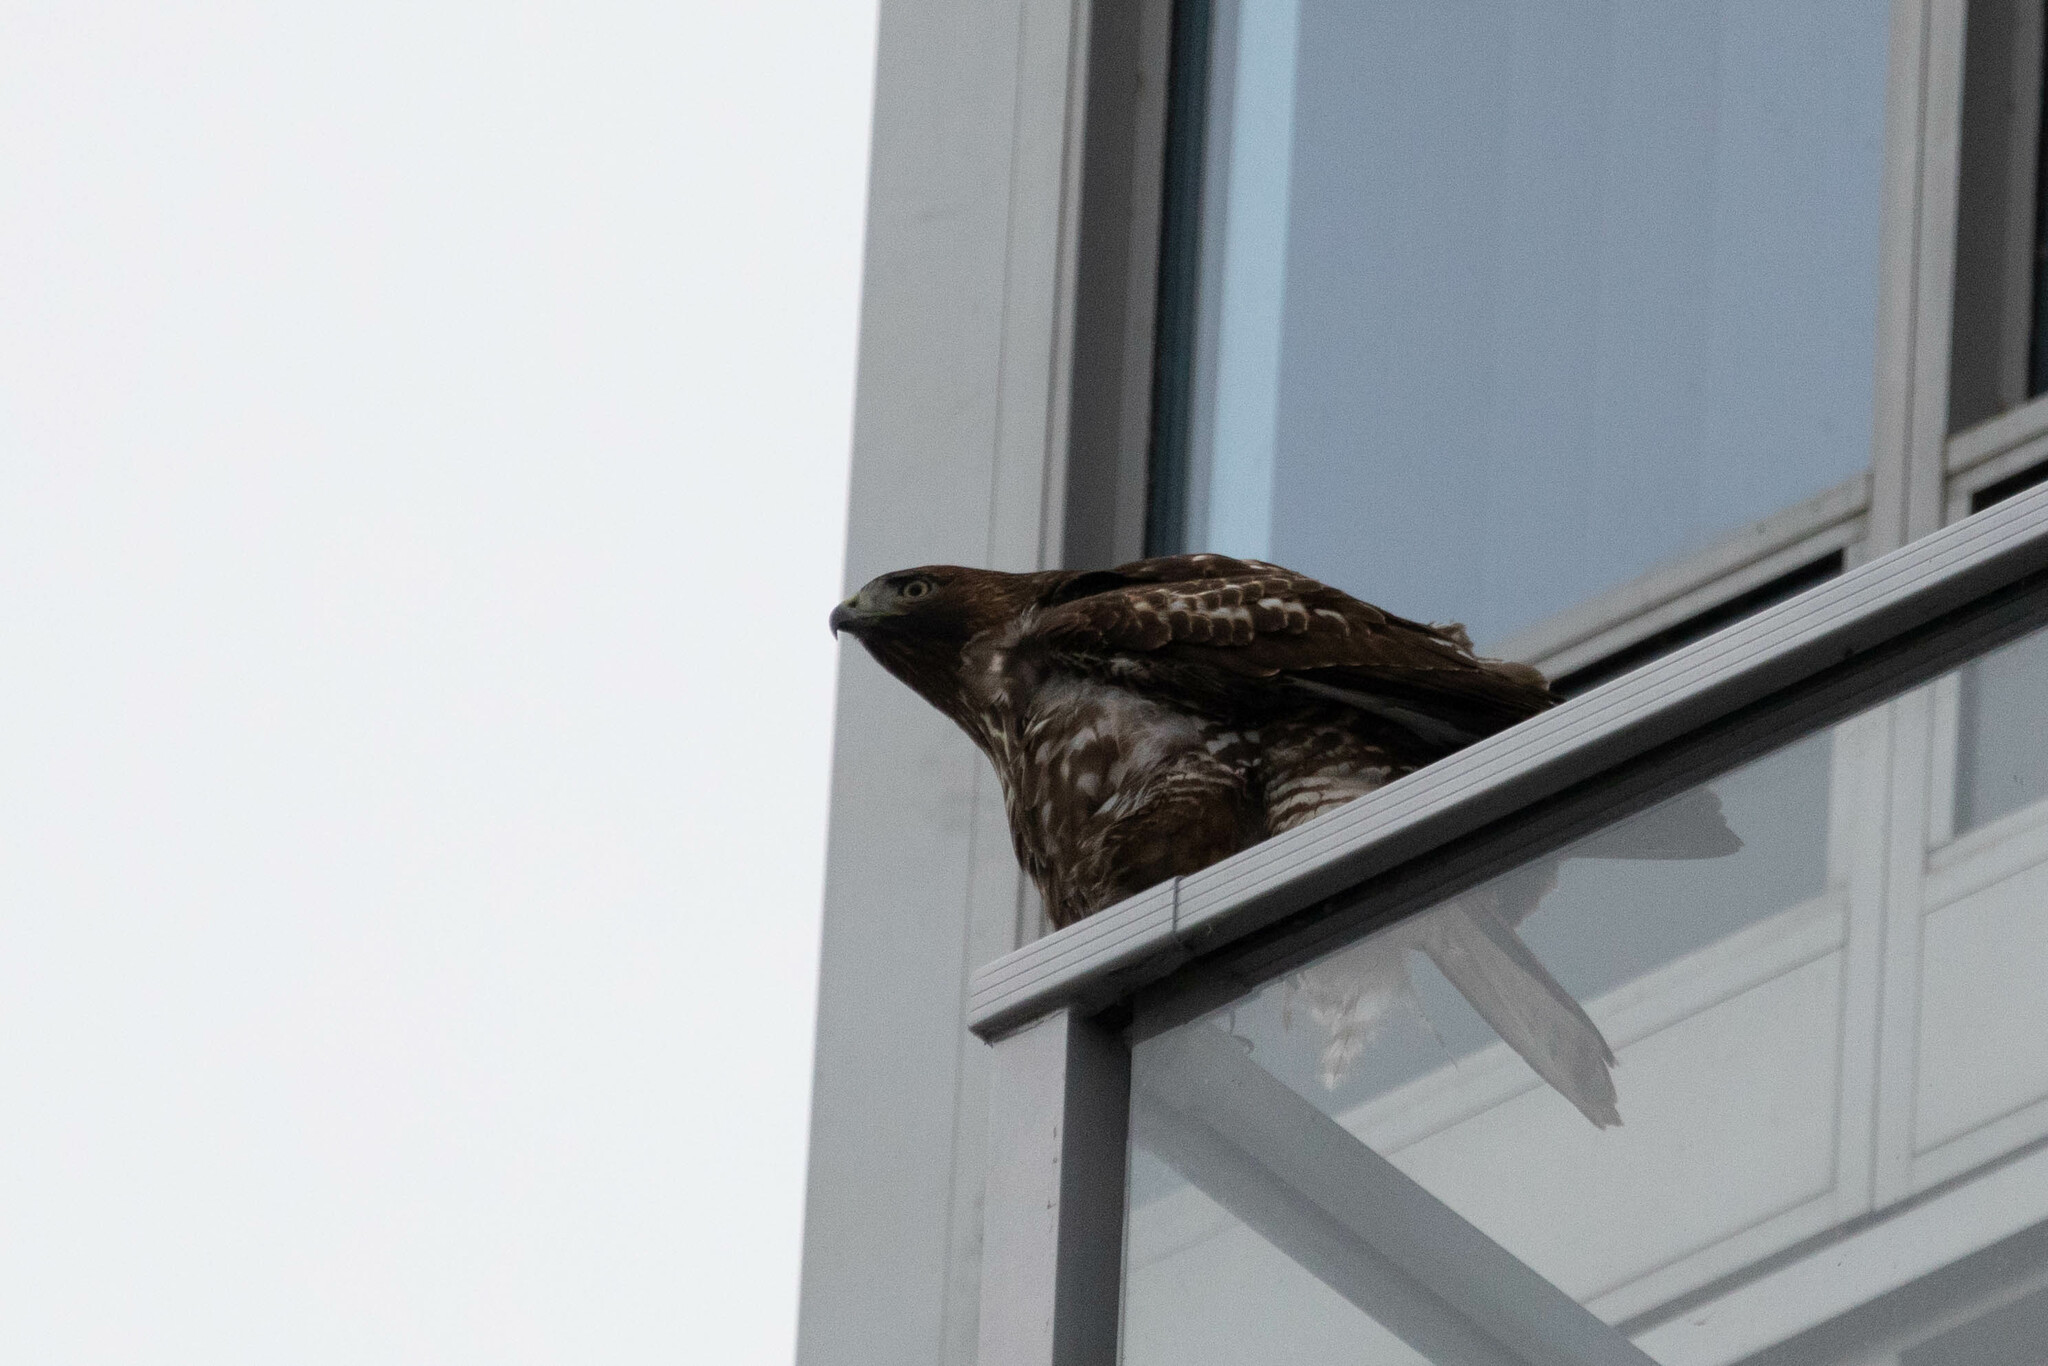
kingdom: Animalia
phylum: Chordata
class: Aves
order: Accipitriformes
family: Accipitridae
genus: Buteo
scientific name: Buteo jamaicensis
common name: Red-tailed hawk
